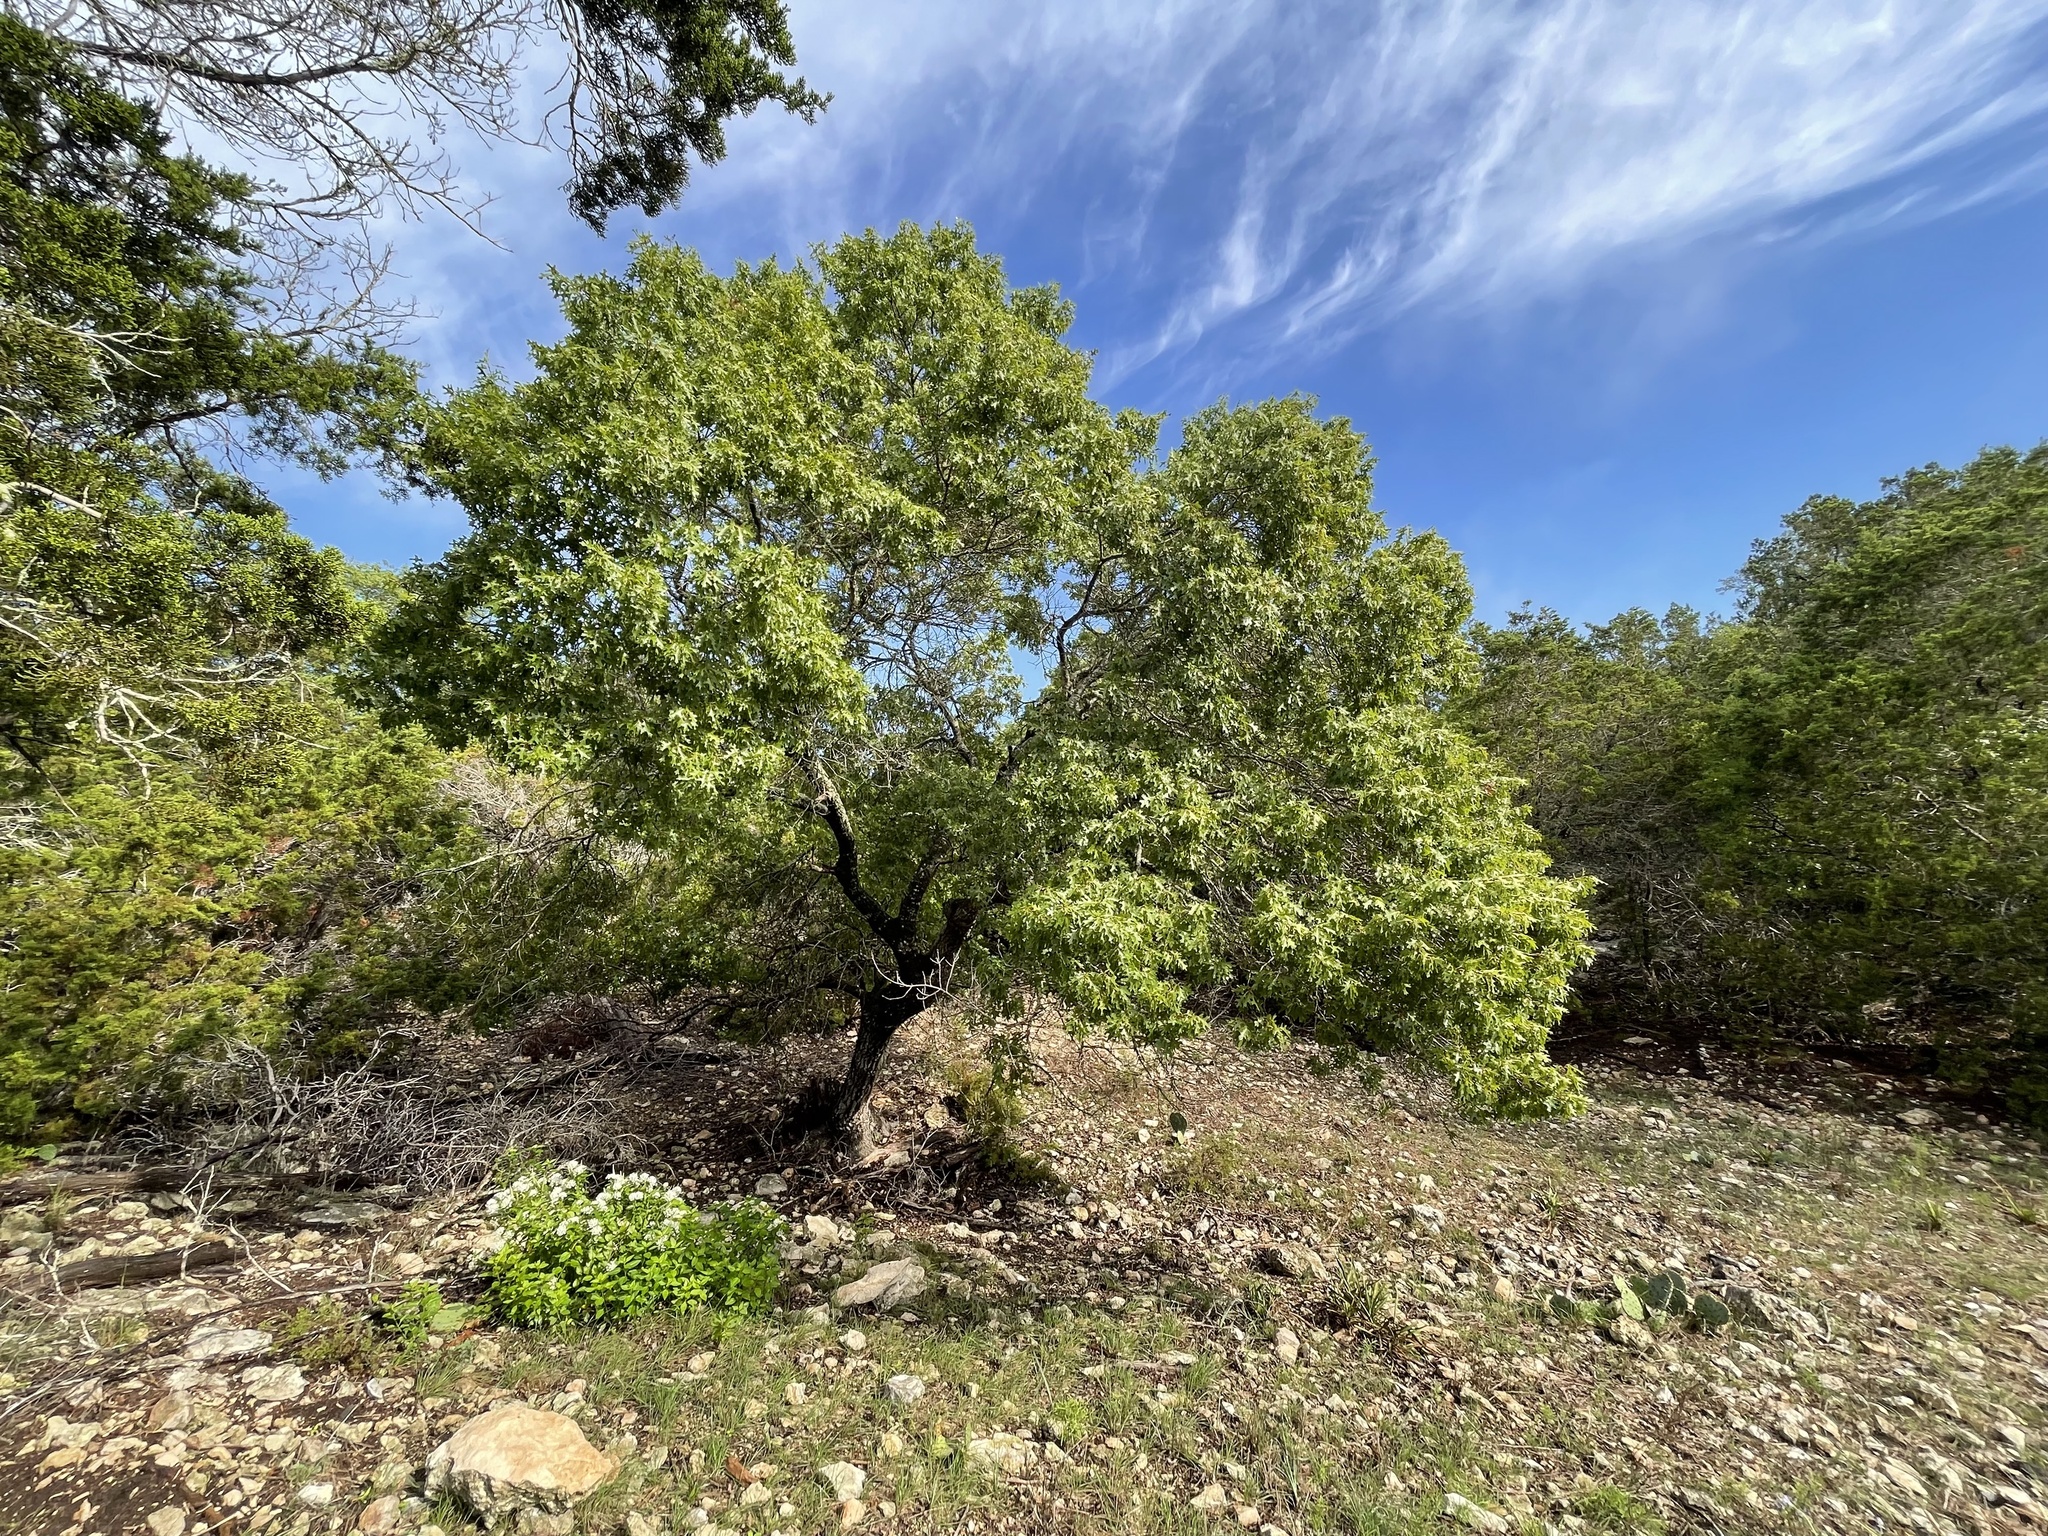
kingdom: Plantae
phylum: Tracheophyta
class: Magnoliopsida
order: Fagales
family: Fagaceae
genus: Quercus
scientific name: Quercus buckleyi
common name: Buckley oak
